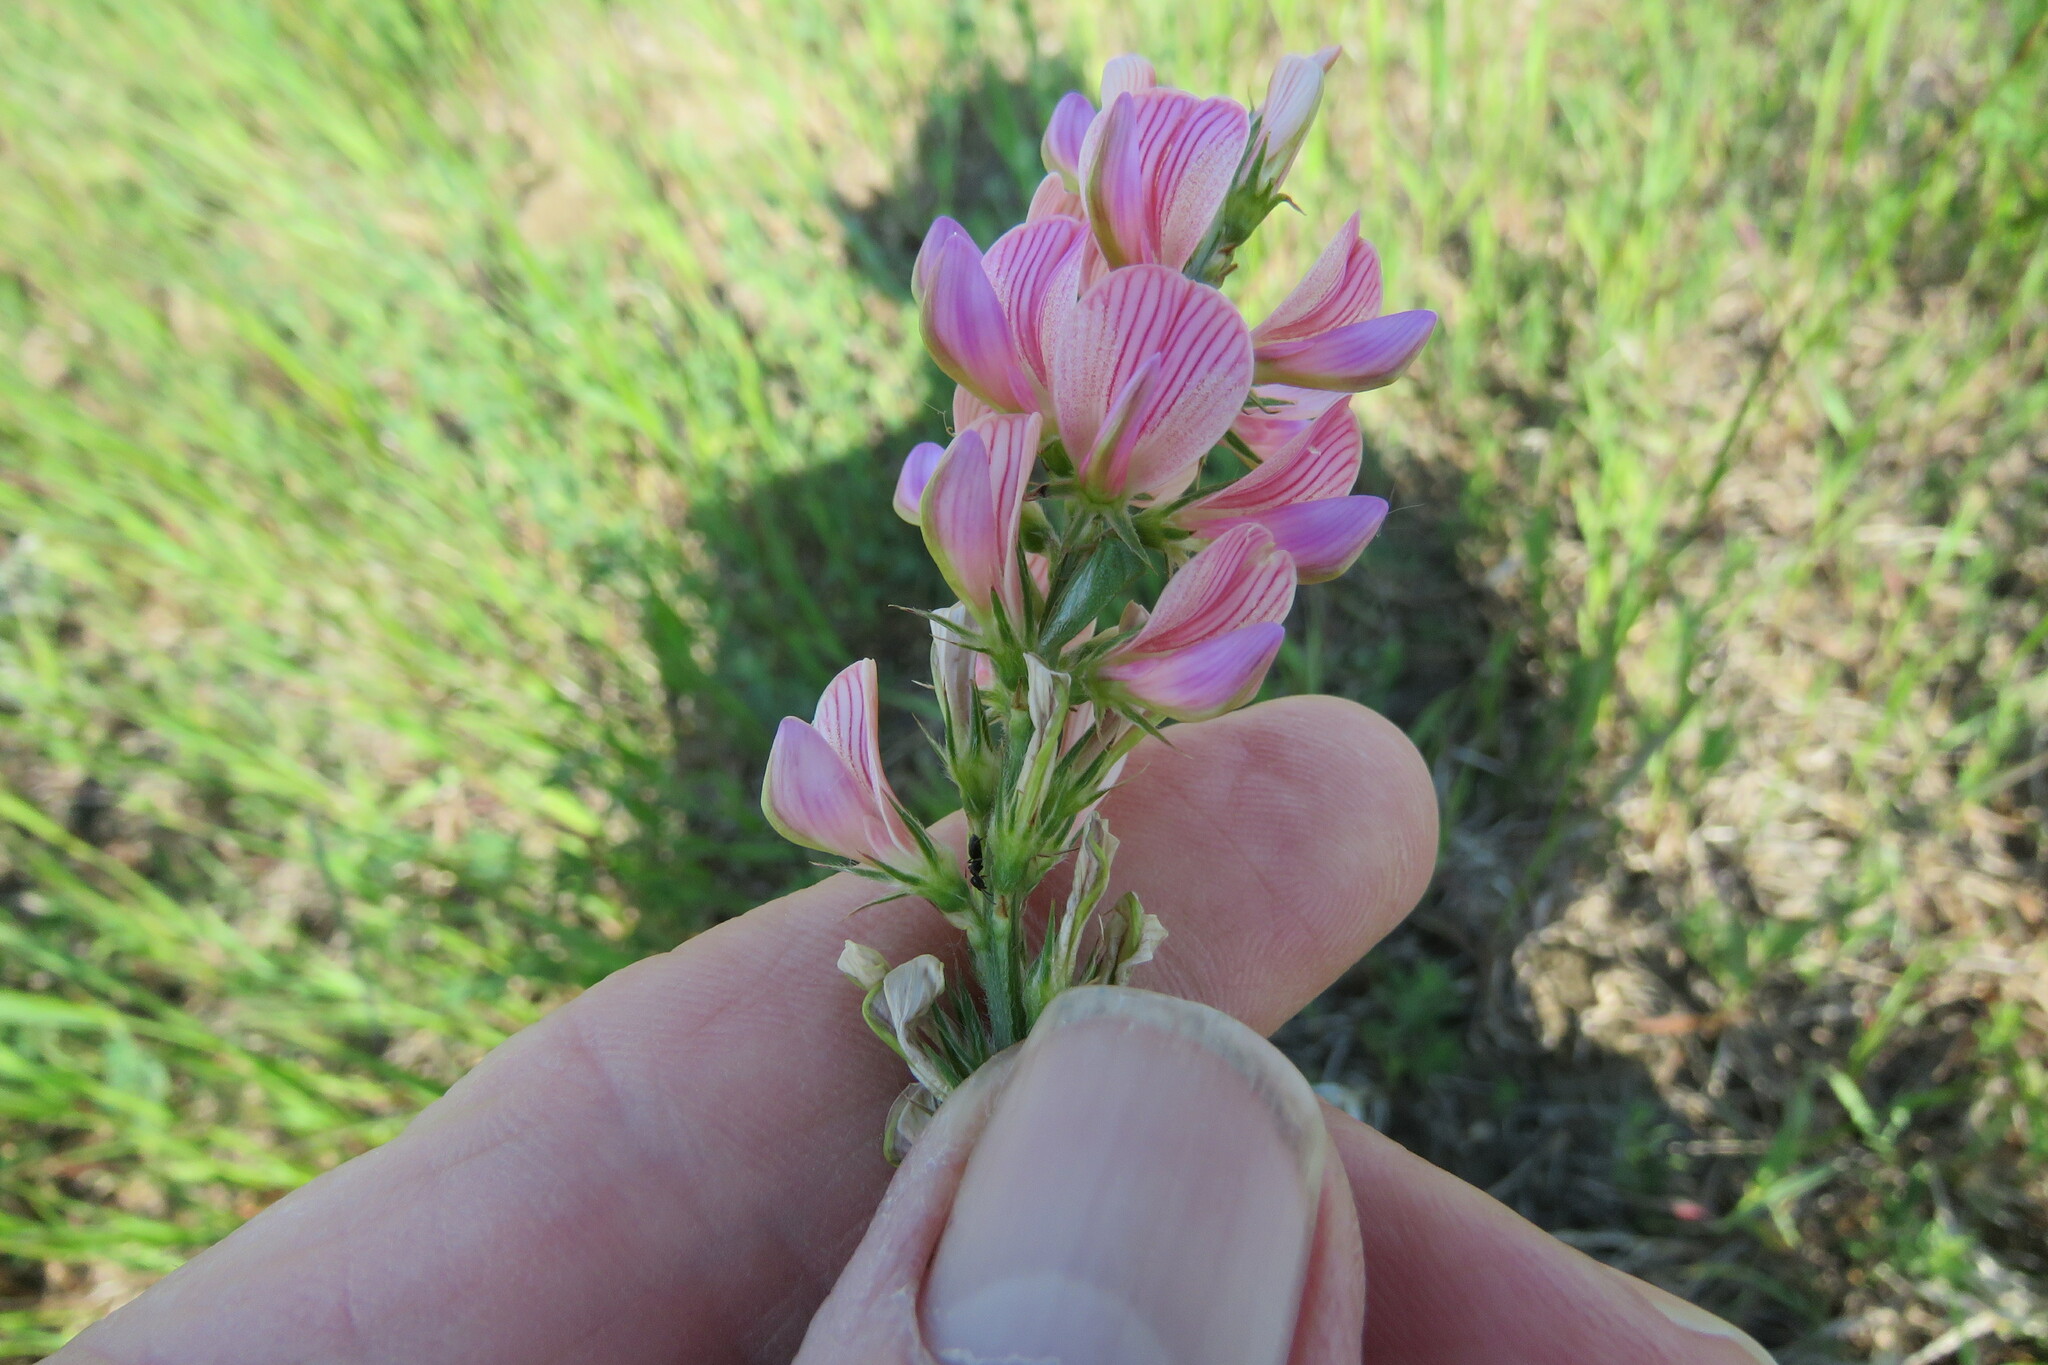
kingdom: Plantae
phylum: Tracheophyta
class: Magnoliopsida
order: Fabales
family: Fabaceae
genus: Onobrychis
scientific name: Onobrychis viciifolia
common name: Sainfoin
